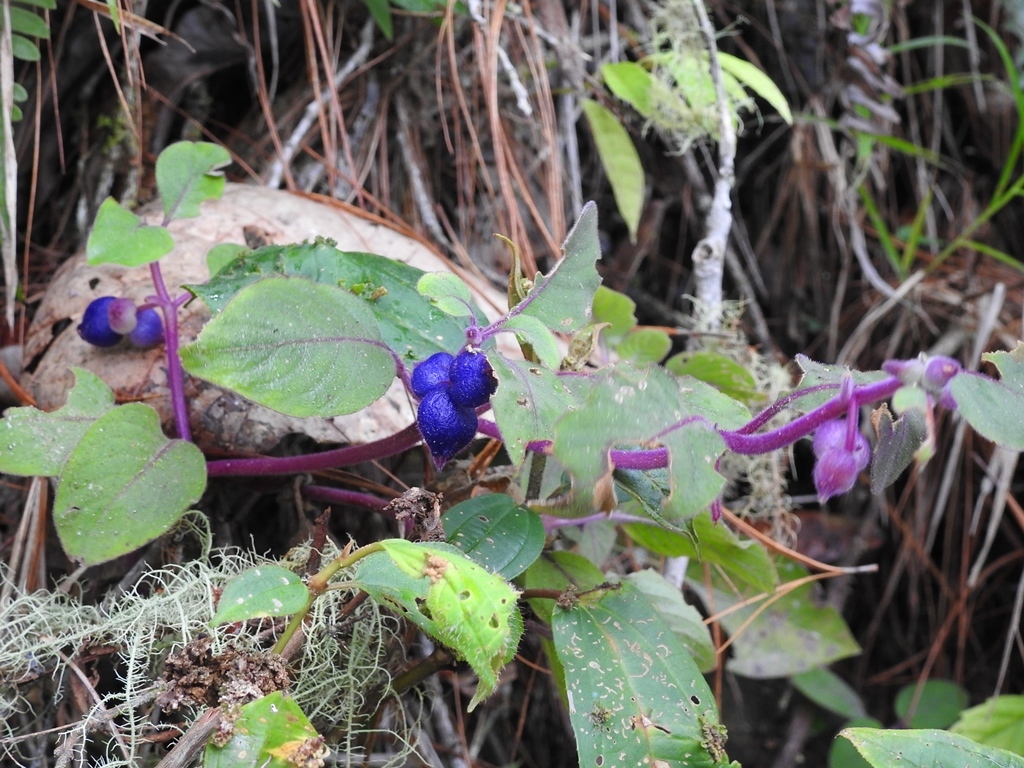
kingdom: Plantae
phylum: Tracheophyta
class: Magnoliopsida
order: Gentianales
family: Rubiaceae
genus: Coccocypselum
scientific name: Coccocypselum hirsutum
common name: Yerba de guava
